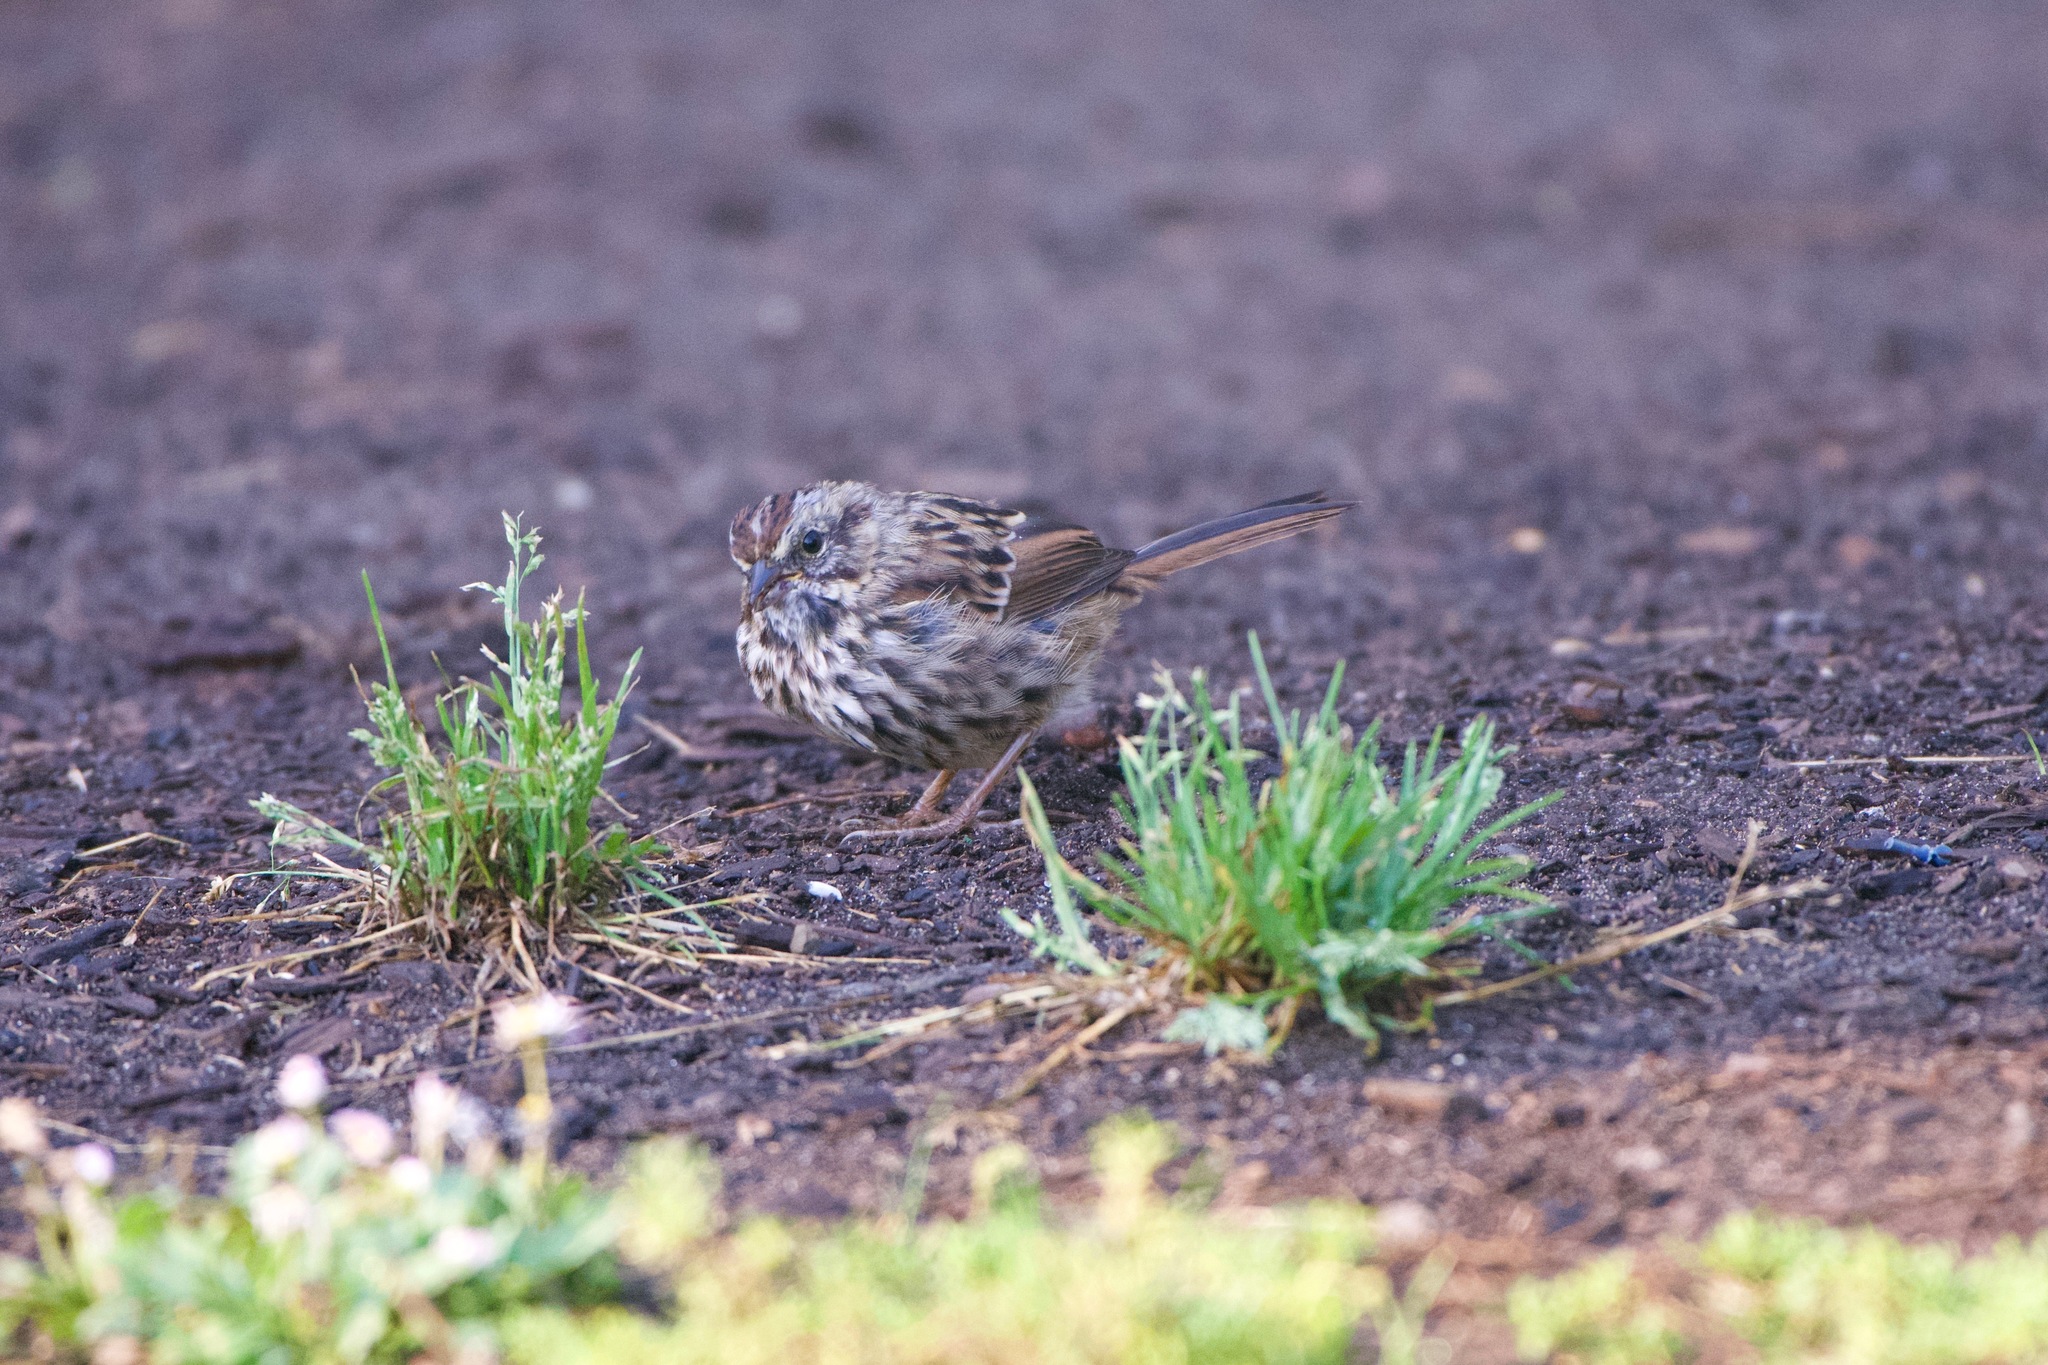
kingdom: Animalia
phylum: Chordata
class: Aves
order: Passeriformes
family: Passerellidae
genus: Melospiza
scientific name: Melospiza melodia
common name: Song sparrow
